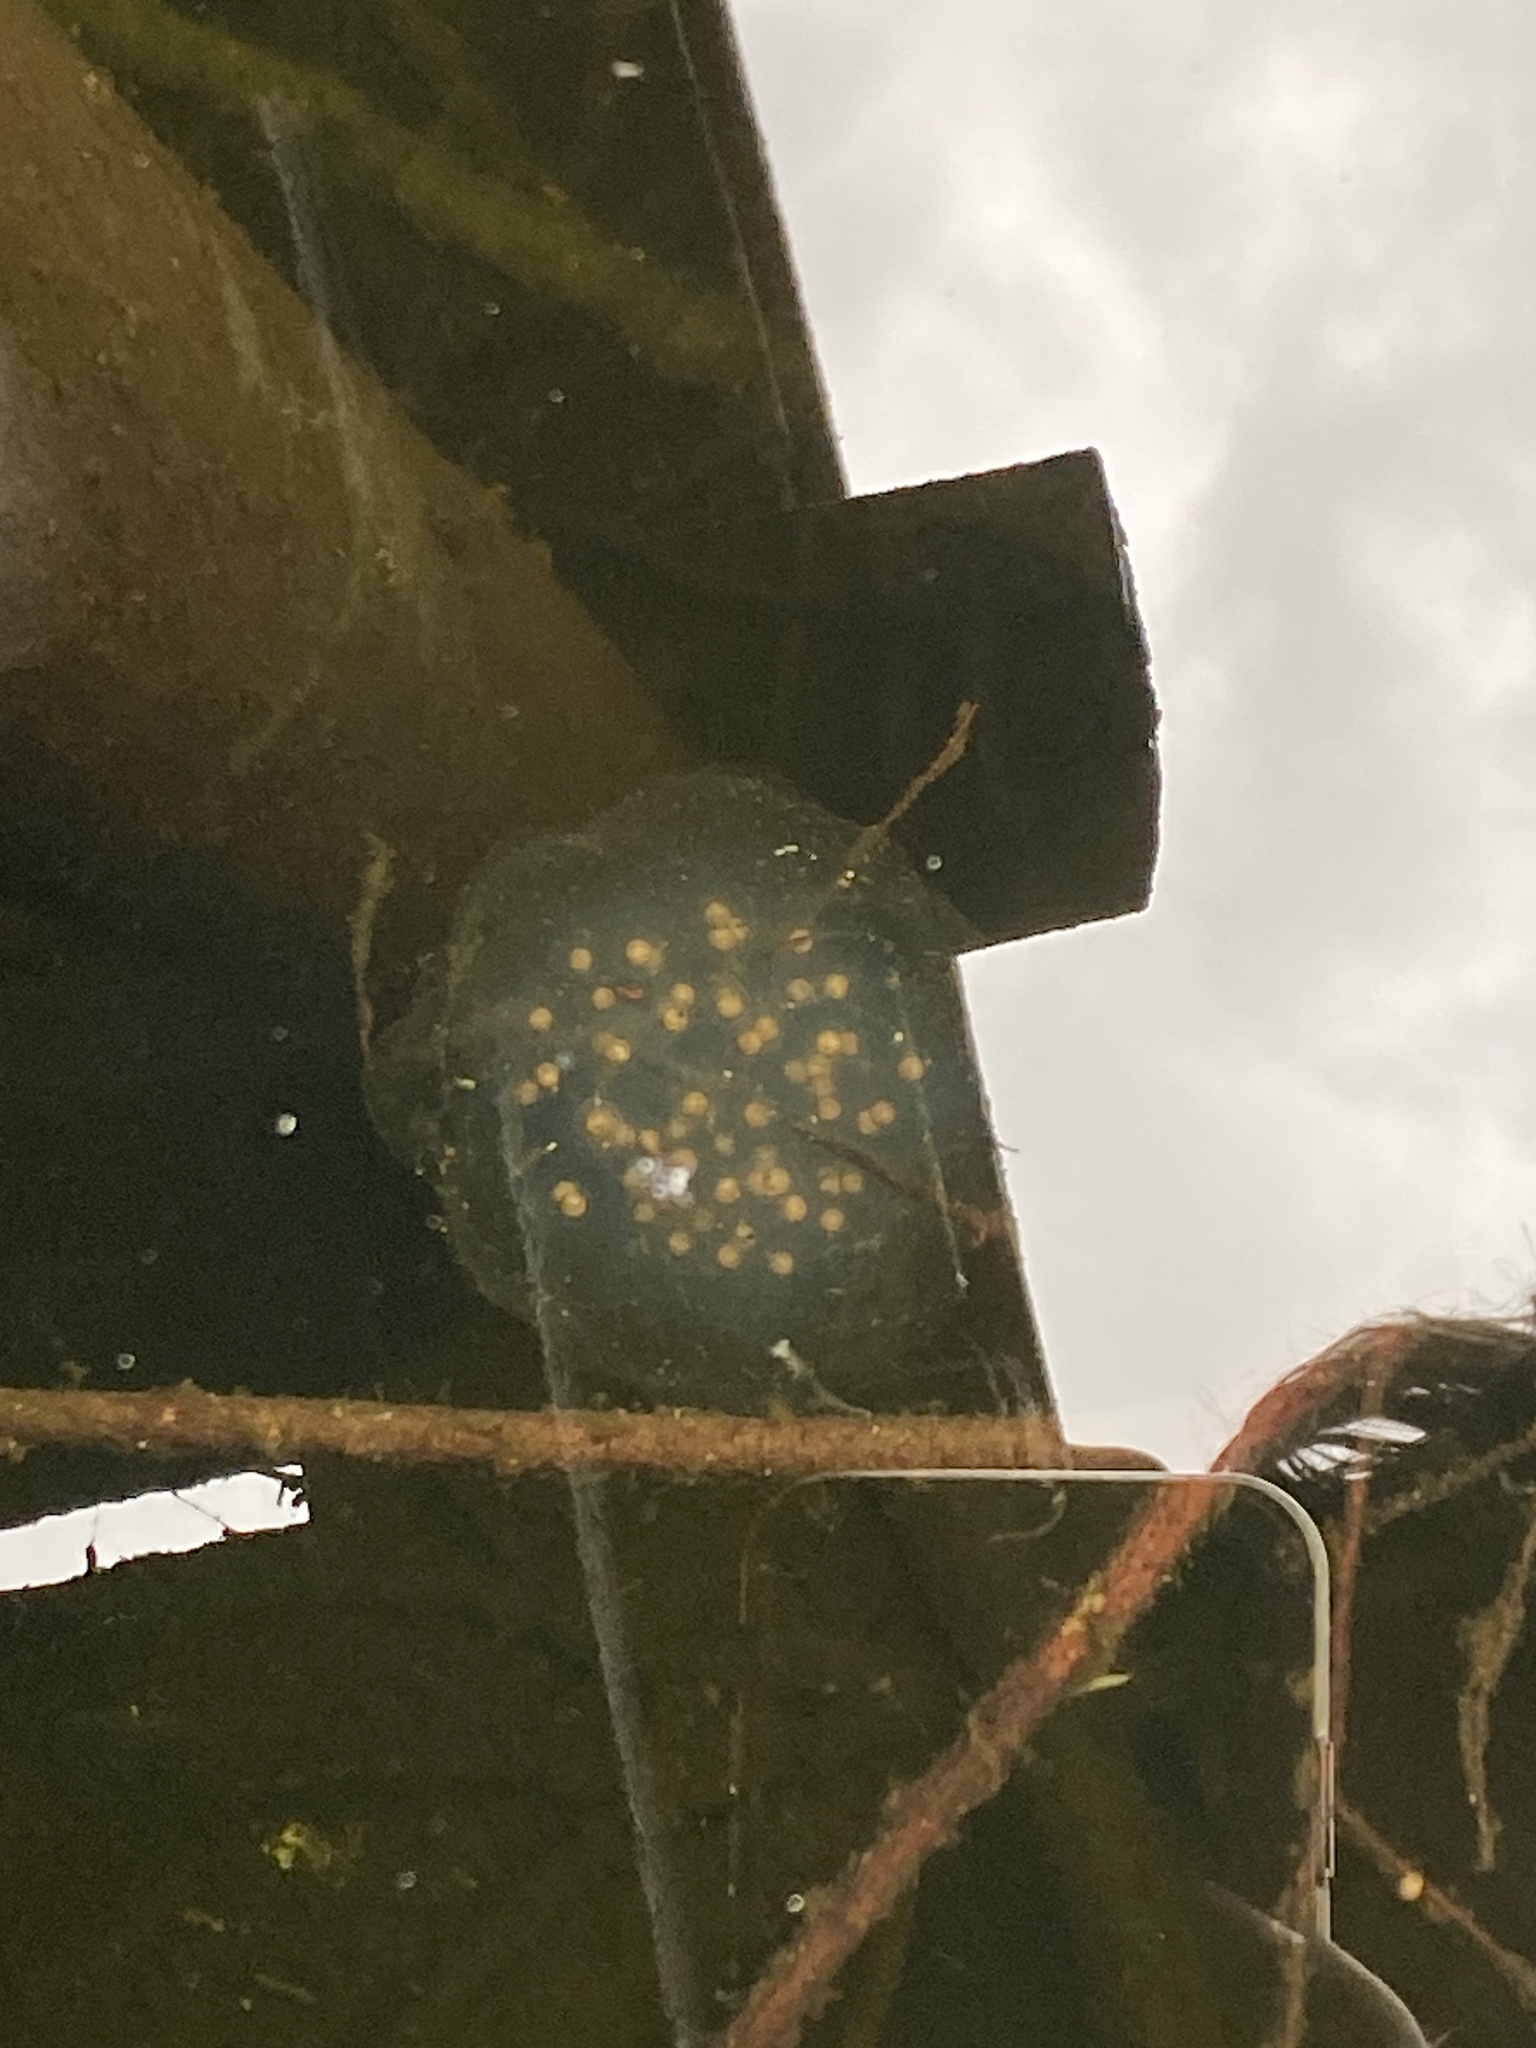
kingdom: Animalia
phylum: Chordata
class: Amphibia
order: Caudata
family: Ambystomatidae
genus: Ambystoma
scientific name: Ambystoma gracile
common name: Northwestern salamander
